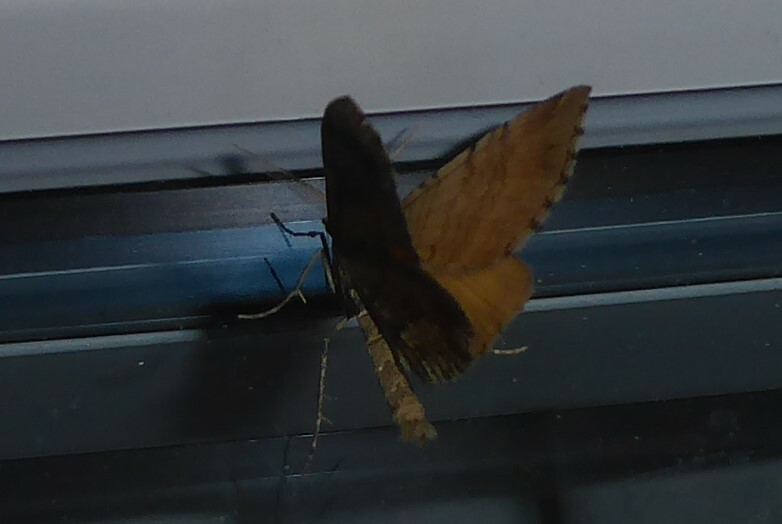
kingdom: Animalia
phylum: Arthropoda
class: Insecta
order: Lepidoptera
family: Geometridae
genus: Asaphodes
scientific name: Asaphodes aegrota
